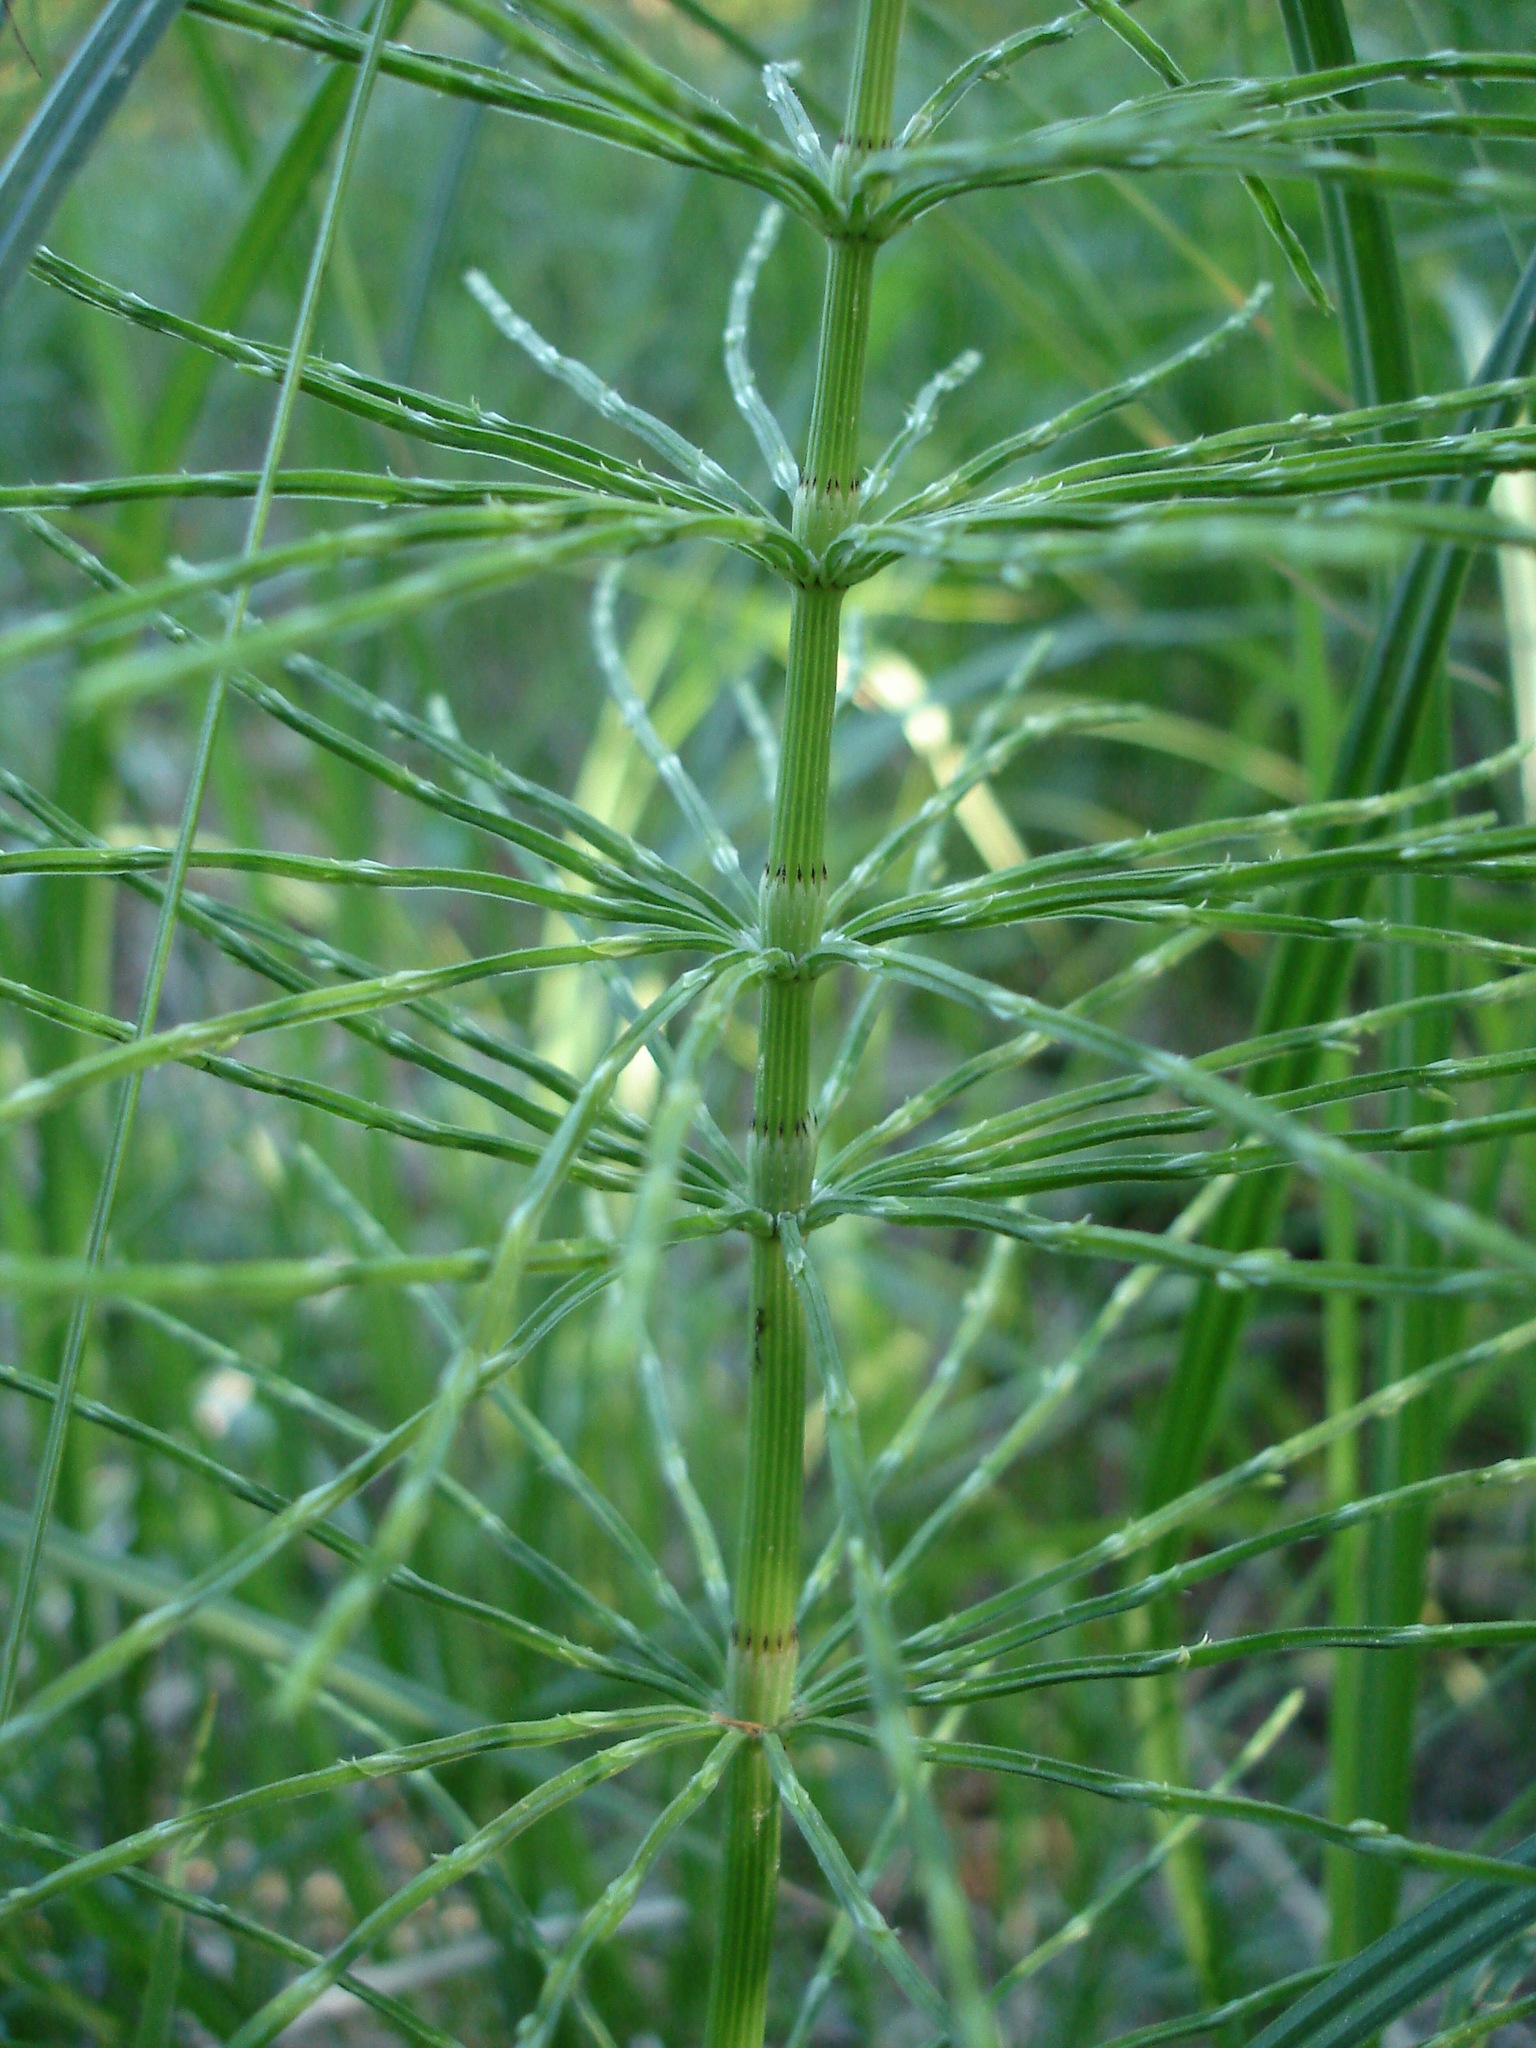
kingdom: Plantae
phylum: Tracheophyta
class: Polypodiopsida
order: Equisetales
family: Equisetaceae
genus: Equisetum
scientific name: Equisetum arvense
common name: Field horsetail
